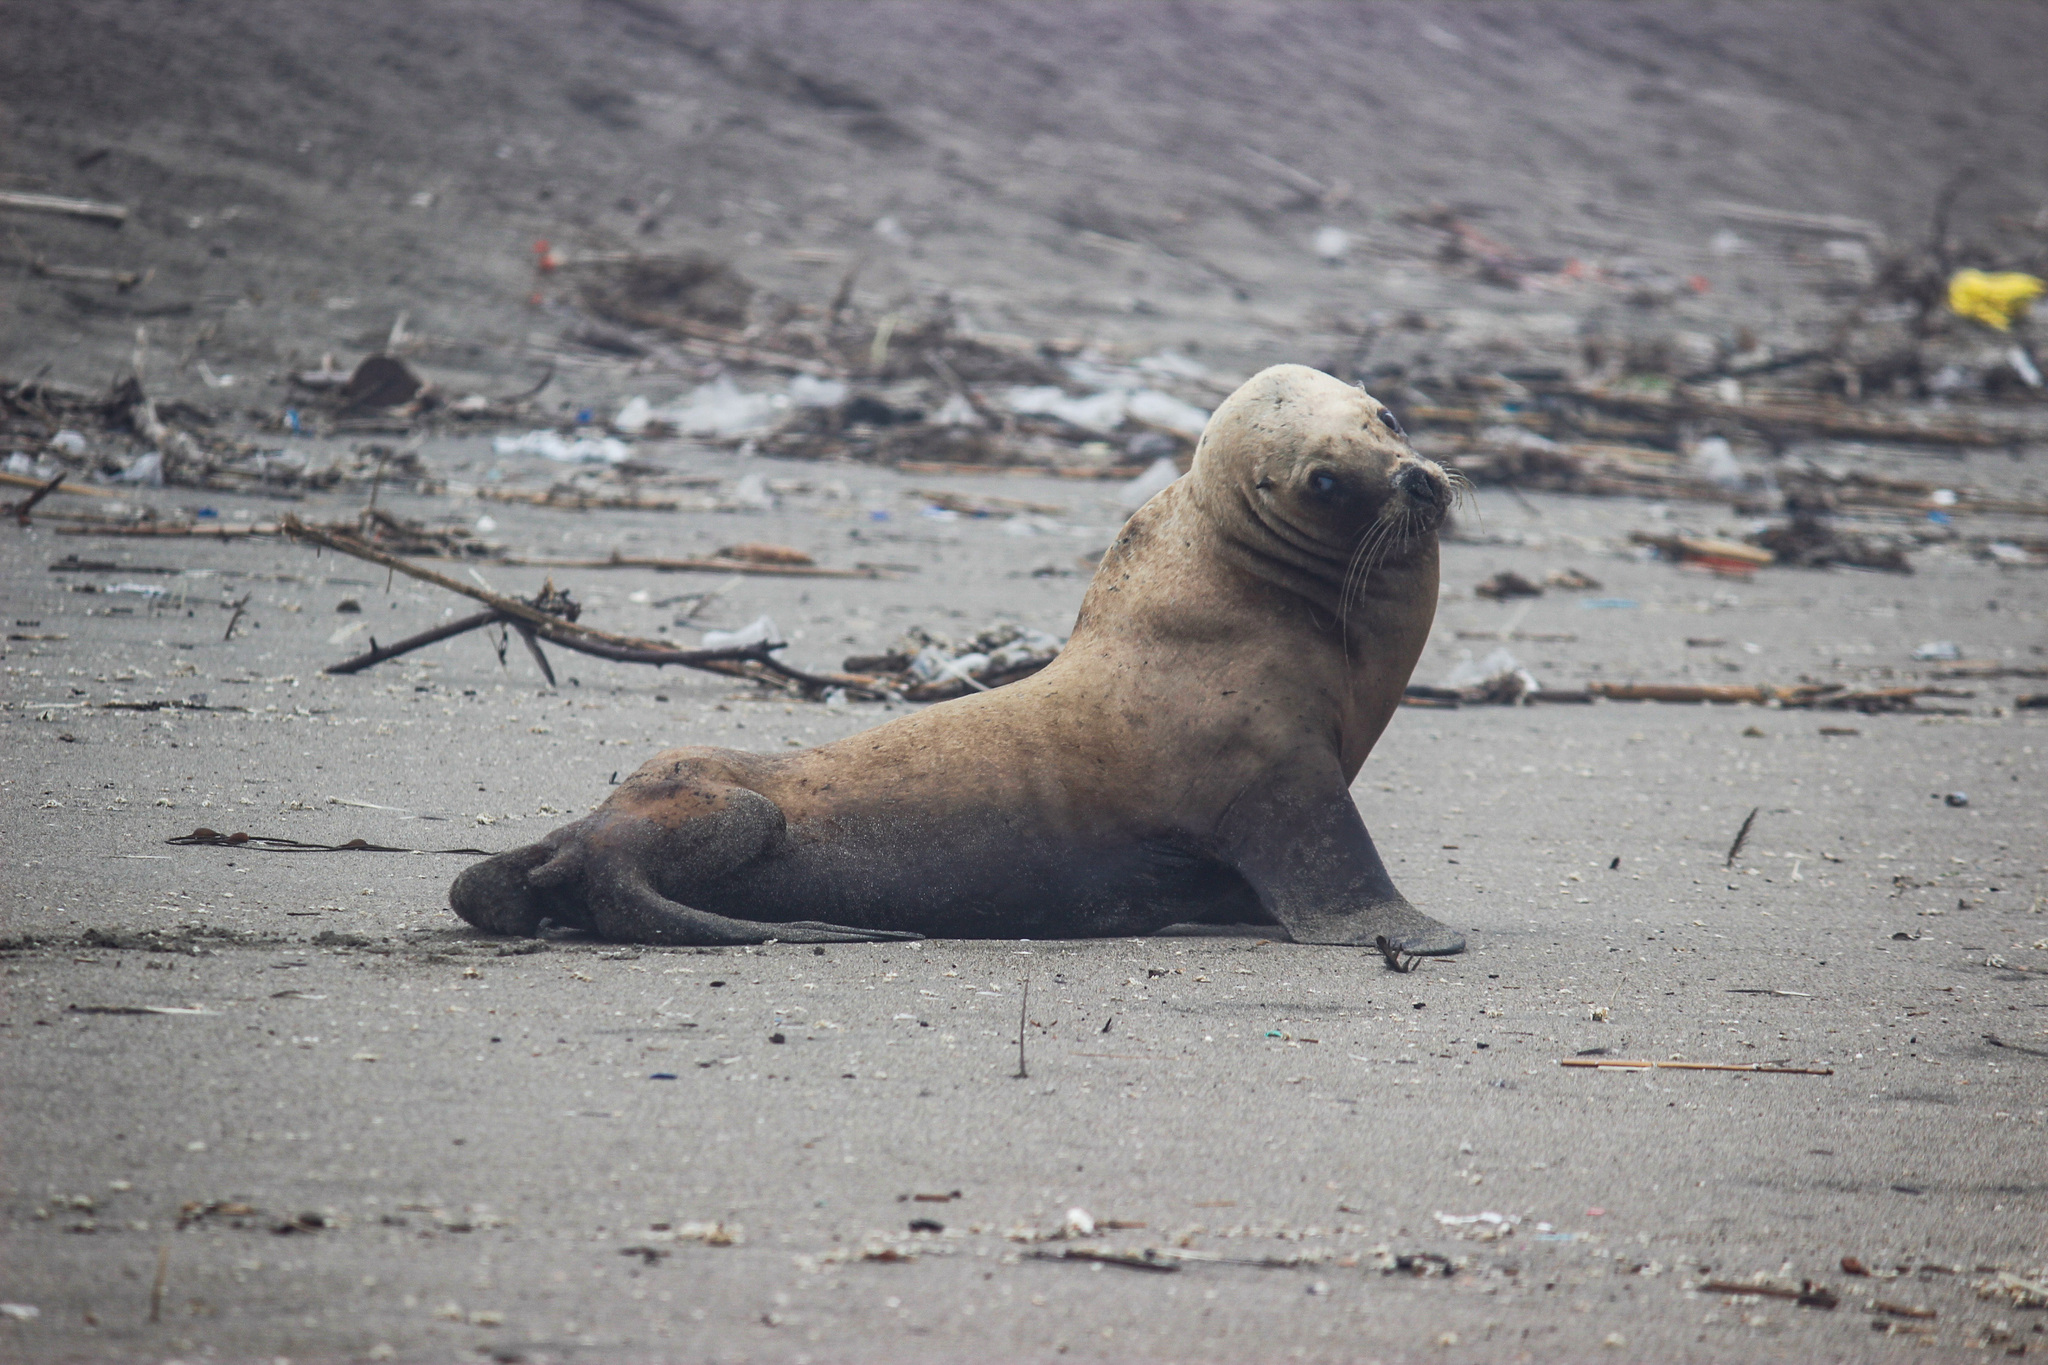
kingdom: Animalia
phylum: Chordata
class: Mammalia
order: Carnivora
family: Otariidae
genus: Otaria
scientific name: Otaria byronia
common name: South american sea lion
